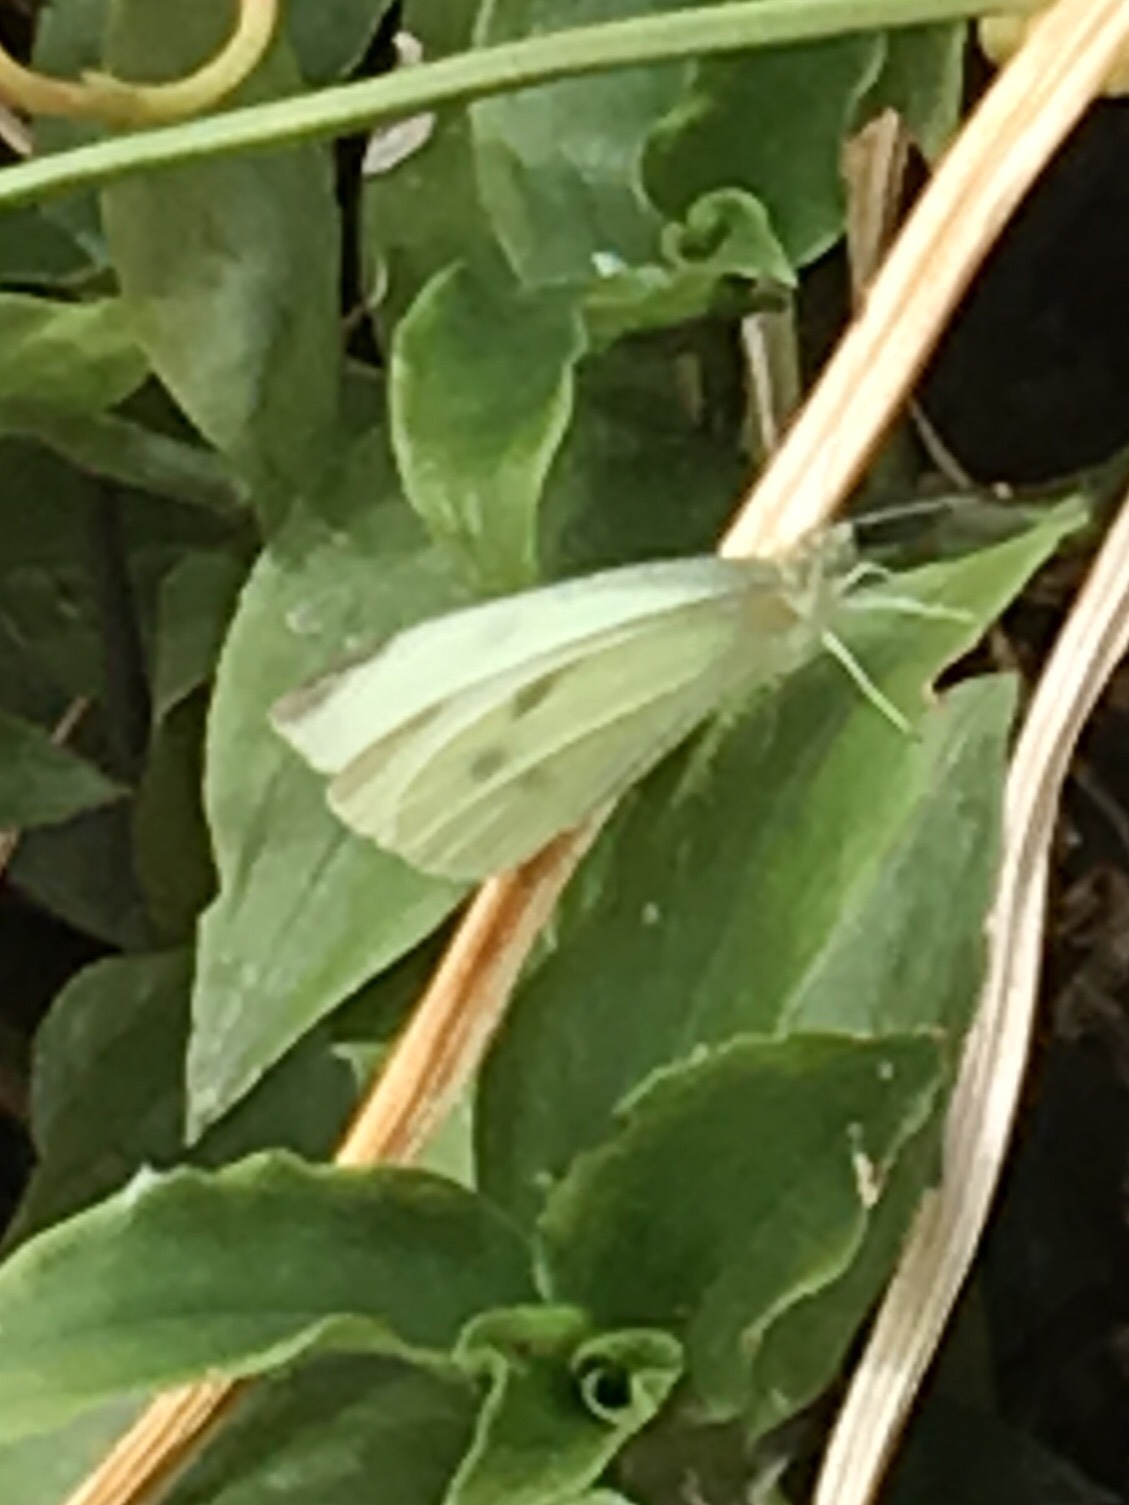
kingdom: Animalia
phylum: Arthropoda
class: Insecta
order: Lepidoptera
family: Pieridae
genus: Pieris
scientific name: Pieris rapae
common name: Small white
